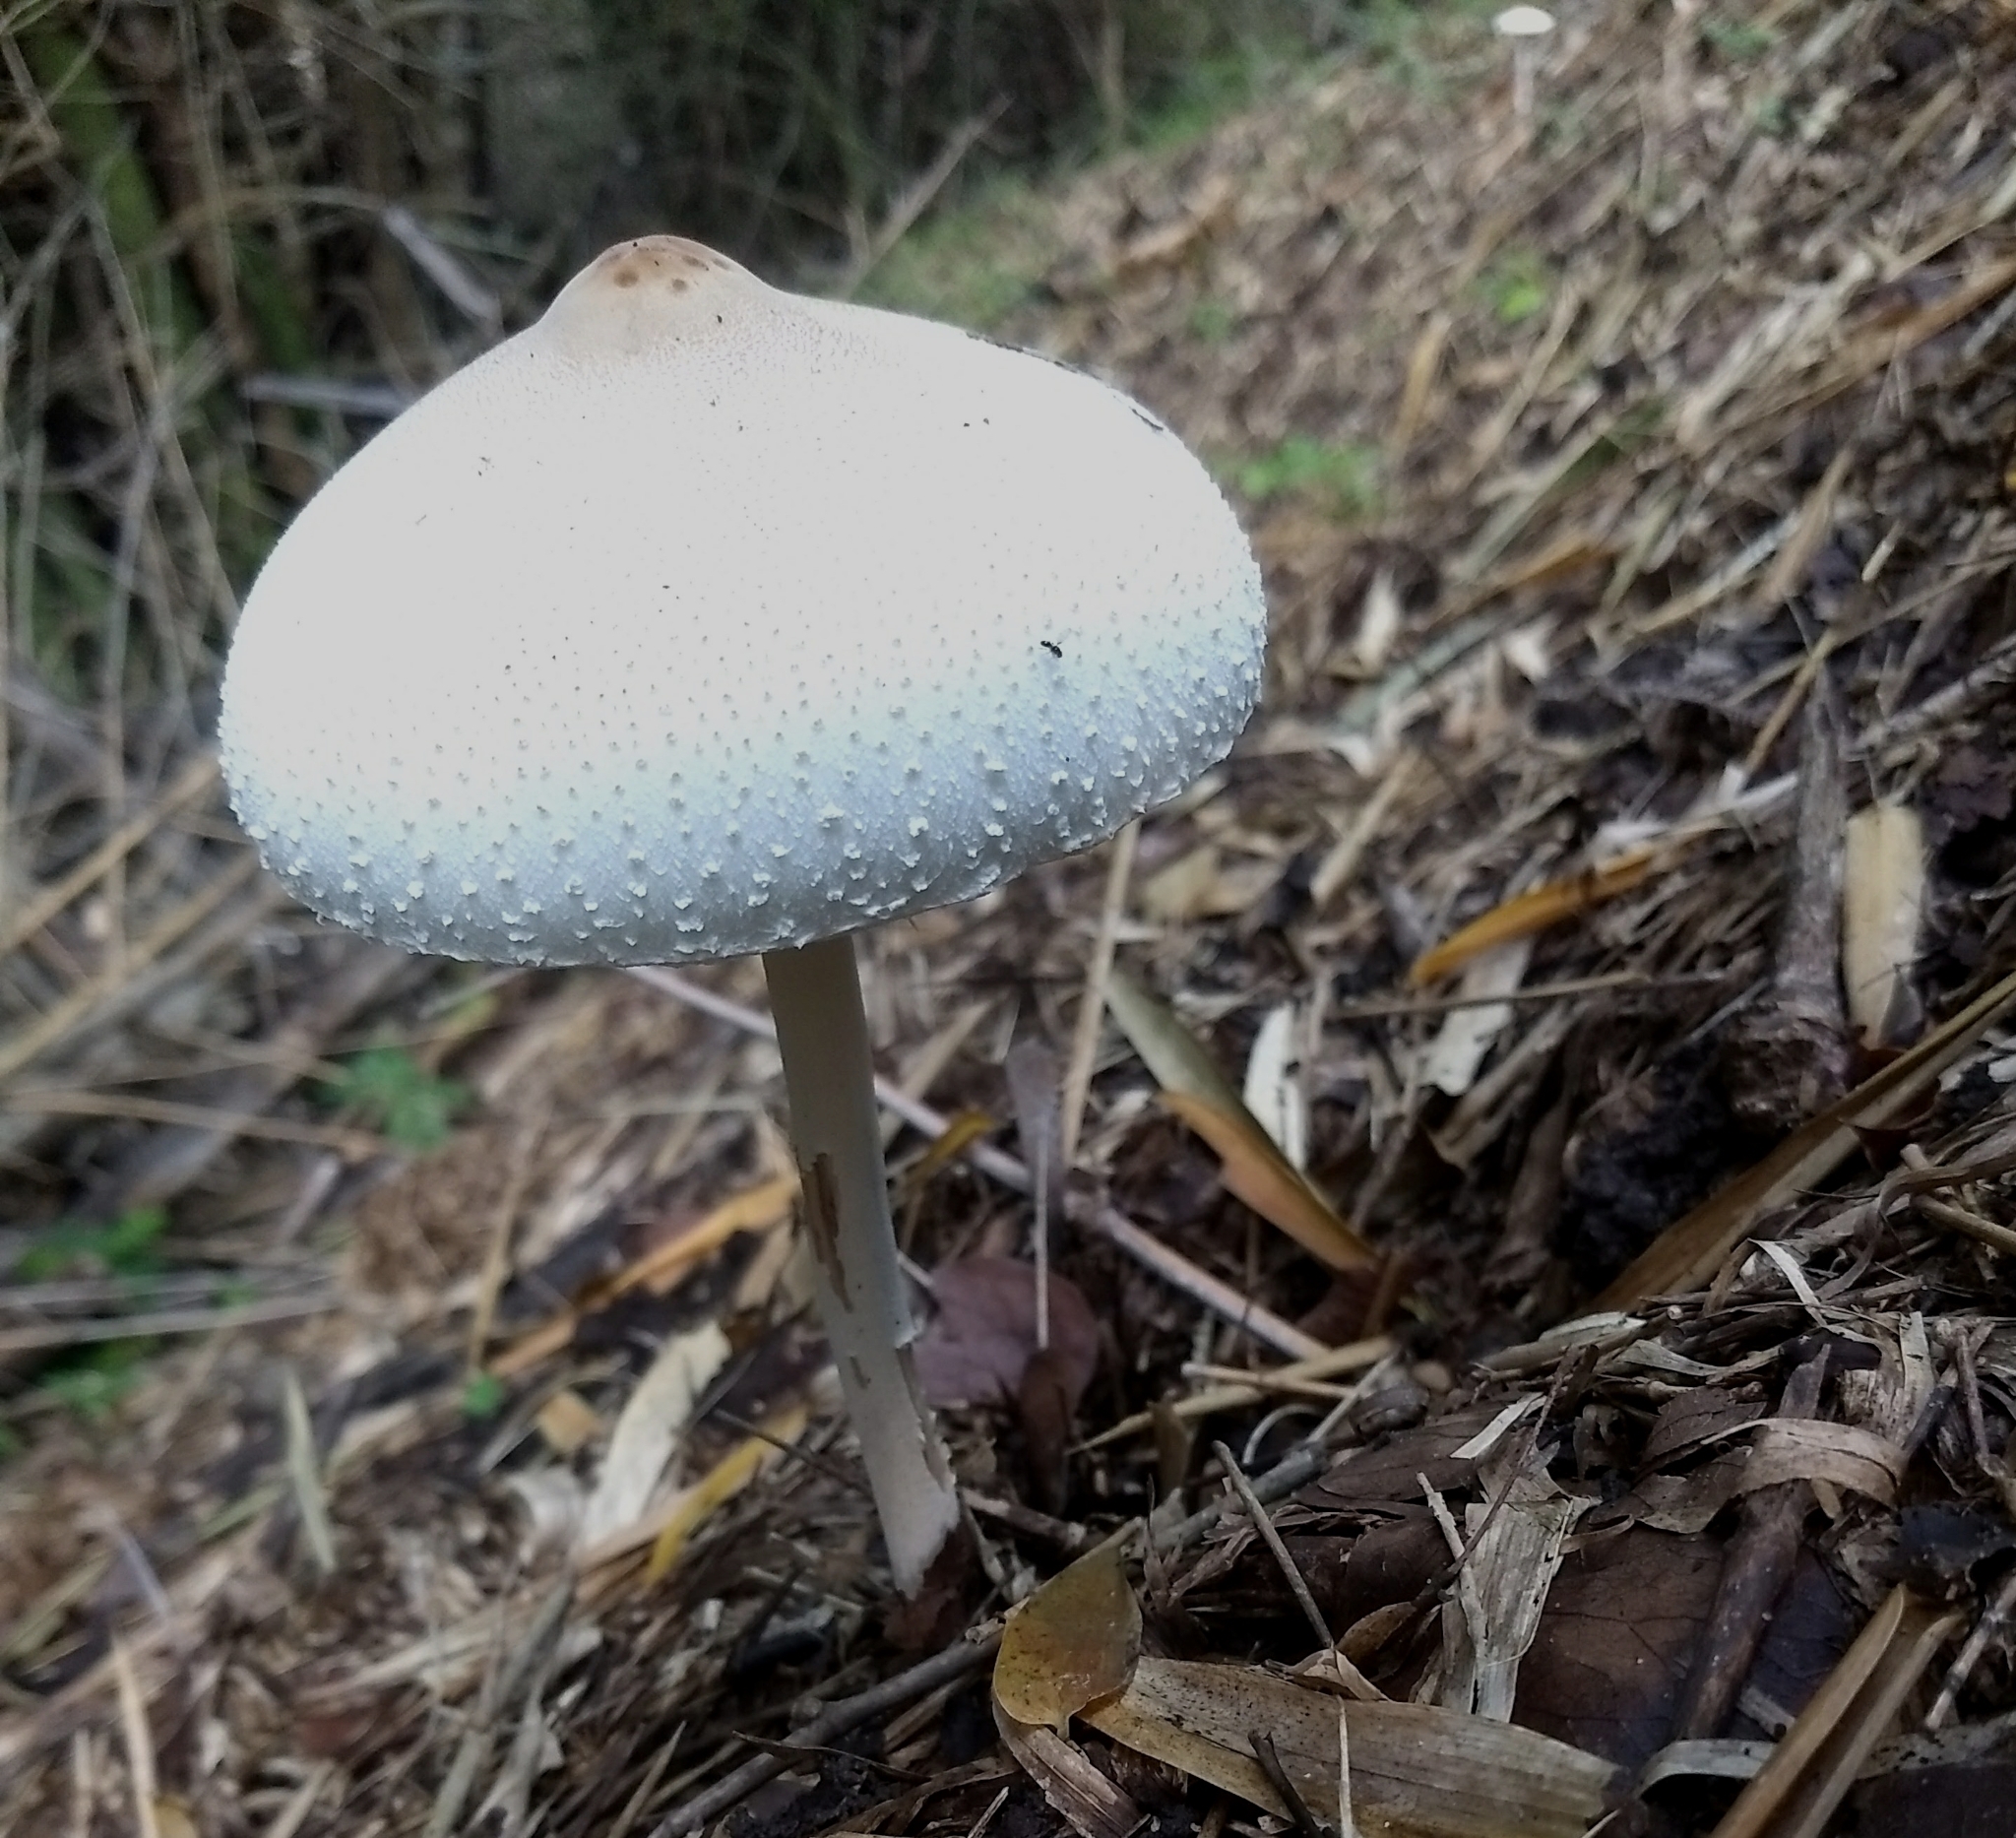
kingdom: Fungi
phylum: Basidiomycota
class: Agaricomycetes
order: Agaricales
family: Agaricaceae
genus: Macrolepiota
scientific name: Macrolepiota dolichaula
